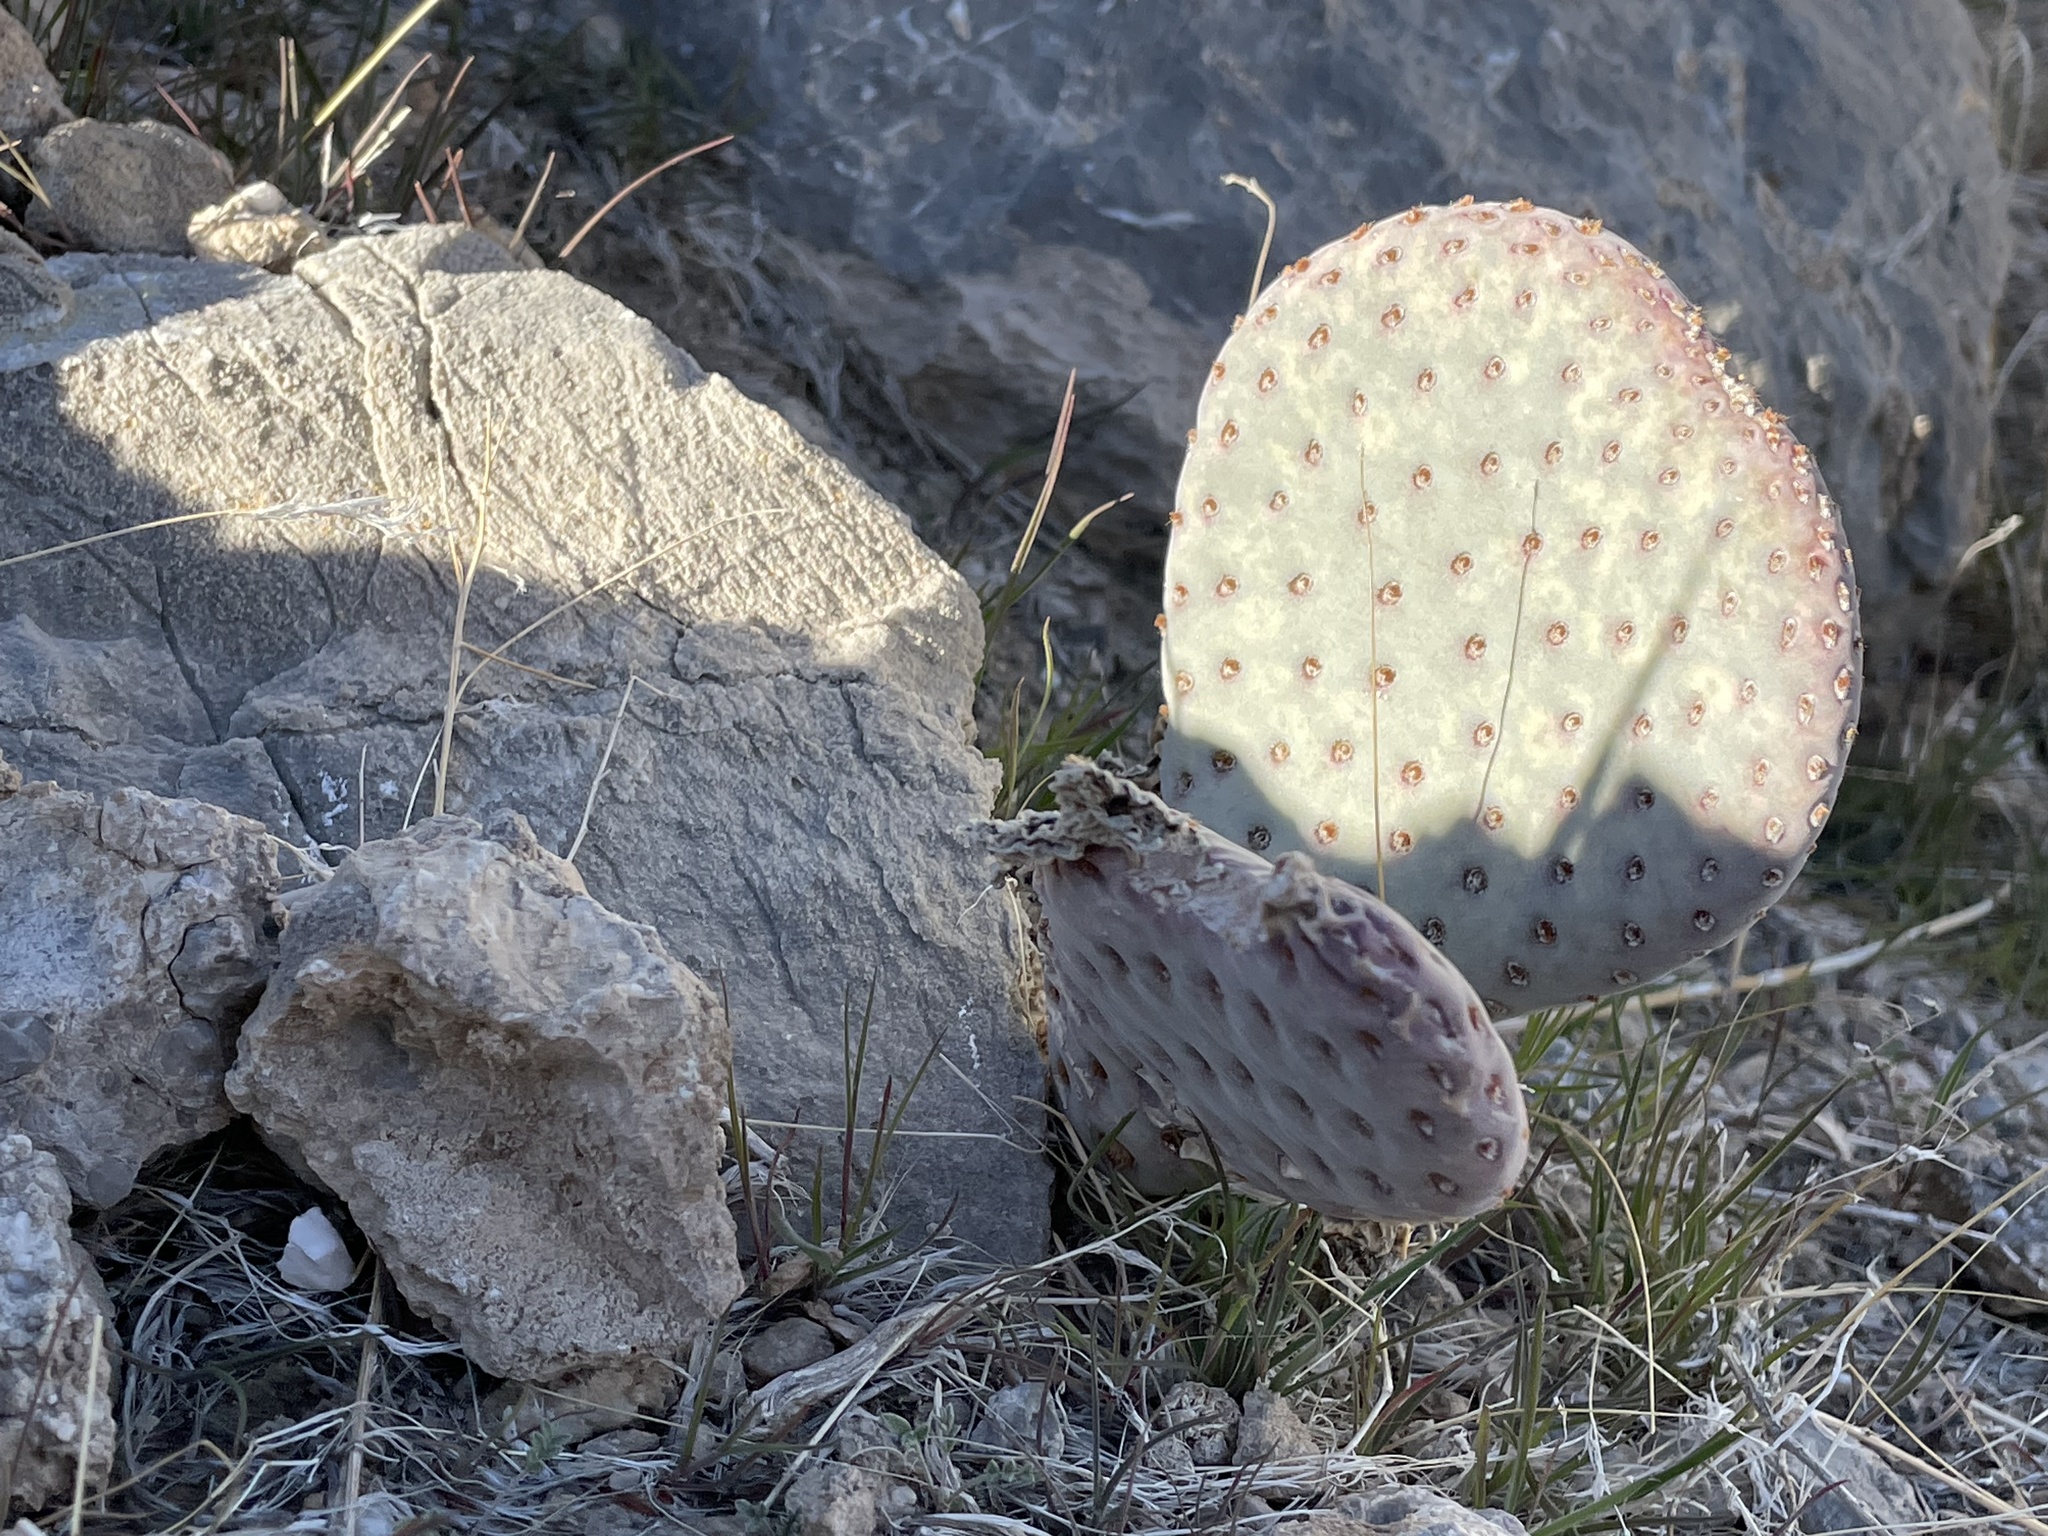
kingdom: Plantae
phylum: Tracheophyta
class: Magnoliopsida
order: Caryophyllales
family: Cactaceae
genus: Opuntia
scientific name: Opuntia basilaris
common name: Beavertail prickly-pear
